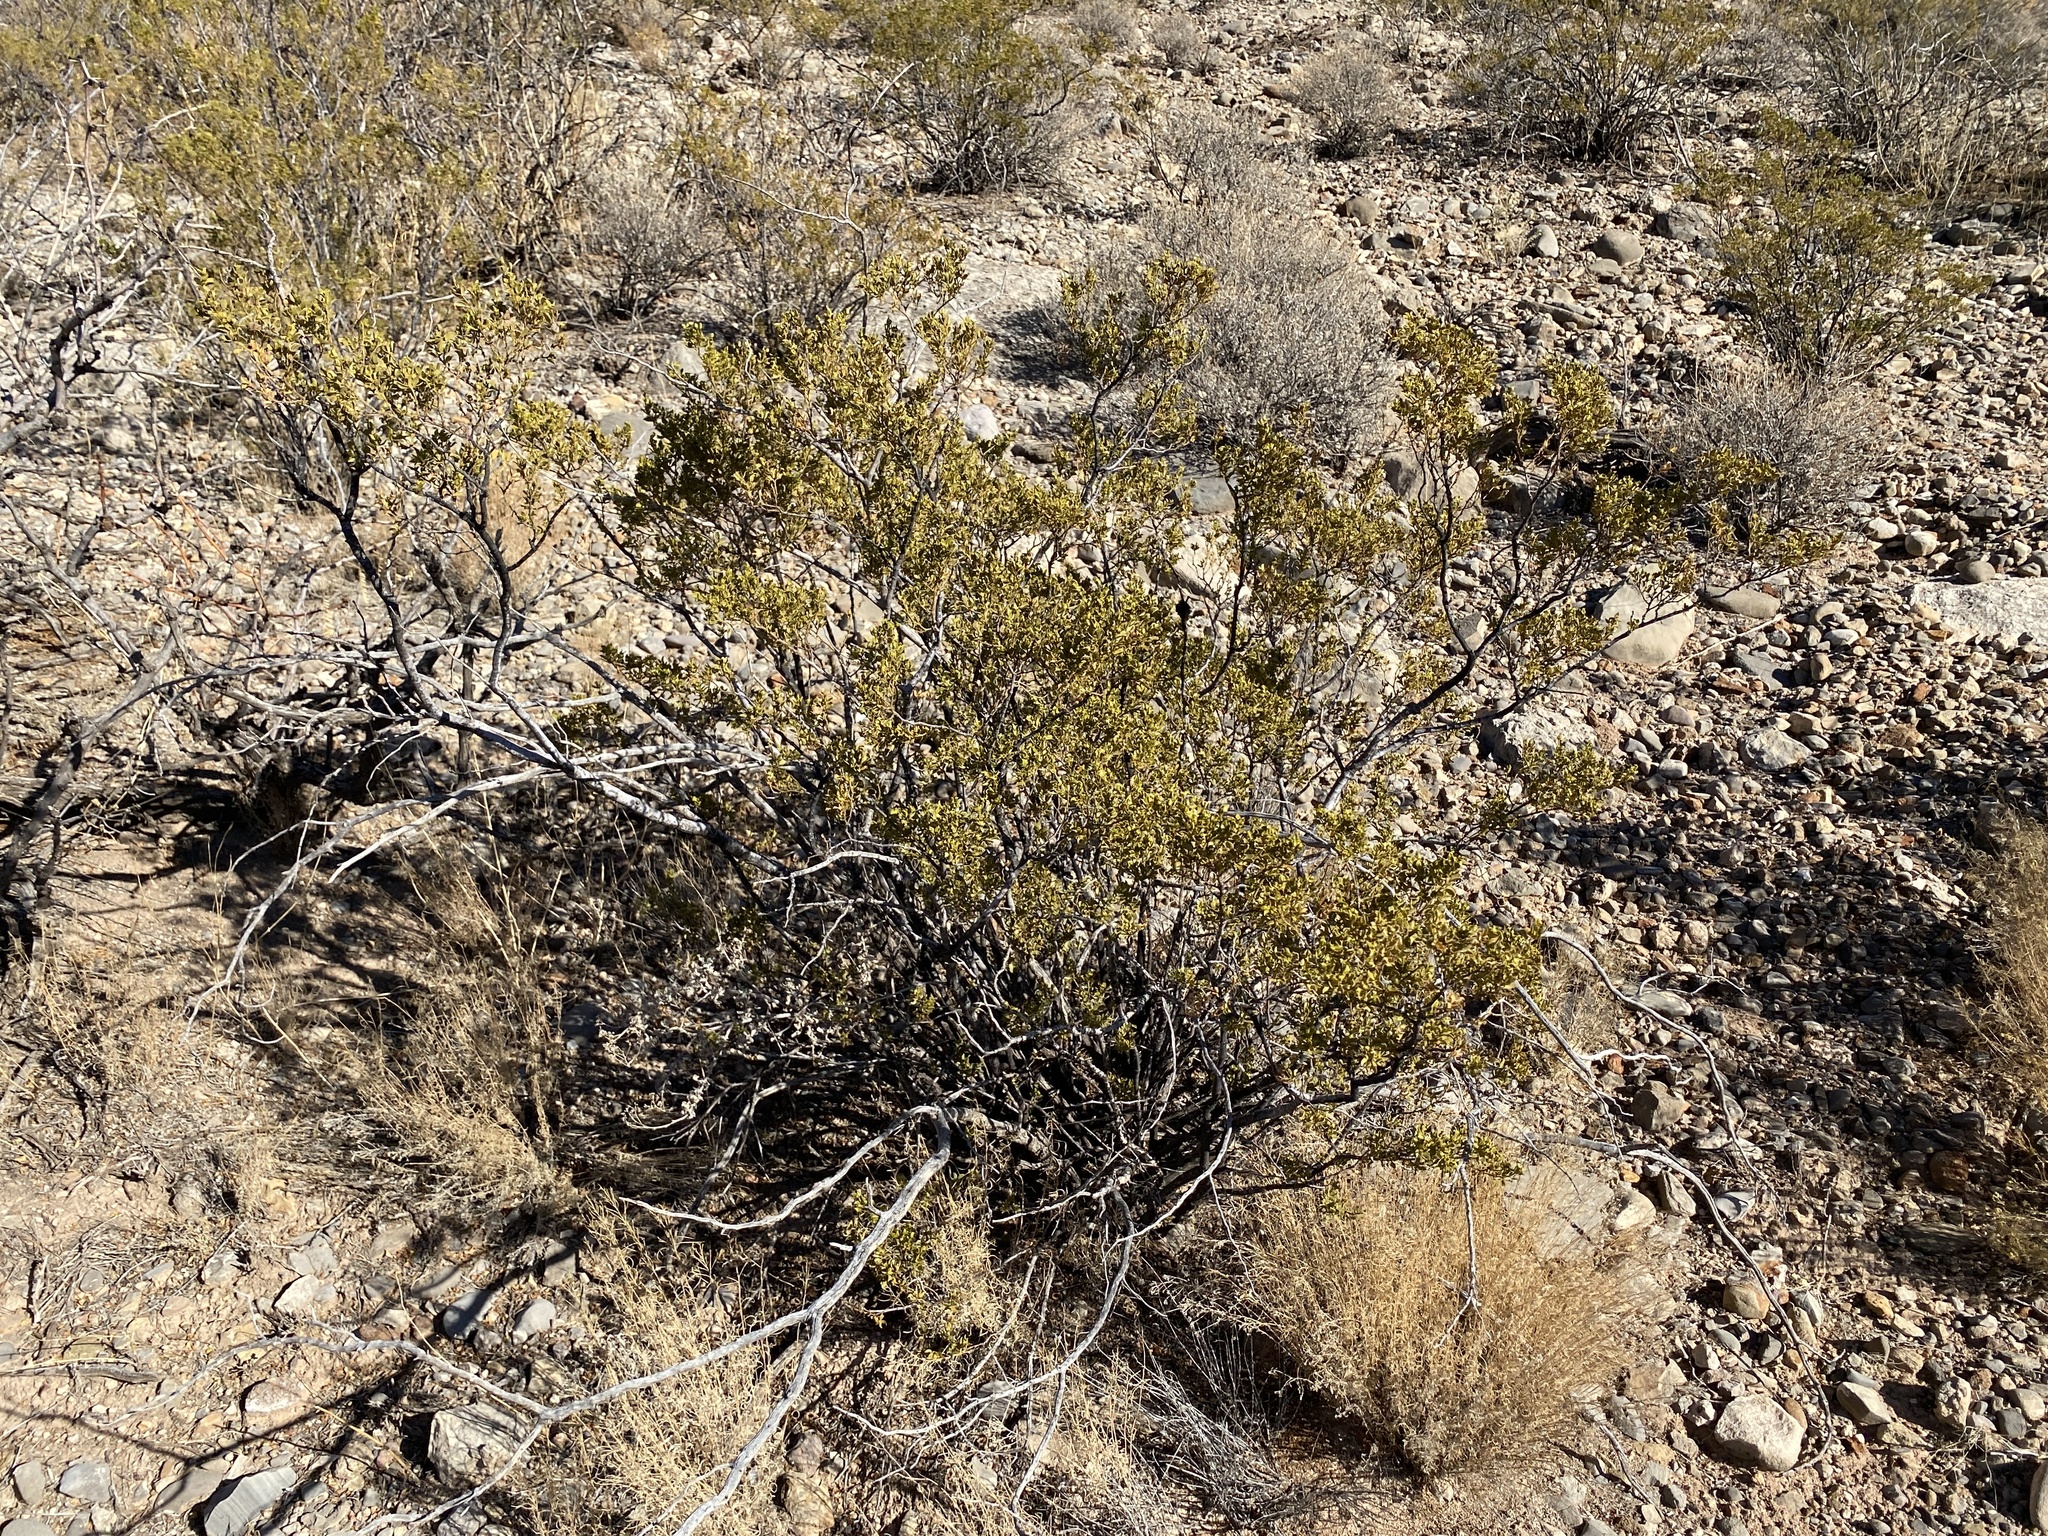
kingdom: Plantae
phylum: Tracheophyta
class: Magnoliopsida
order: Zygophyllales
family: Zygophyllaceae
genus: Larrea
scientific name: Larrea tridentata
